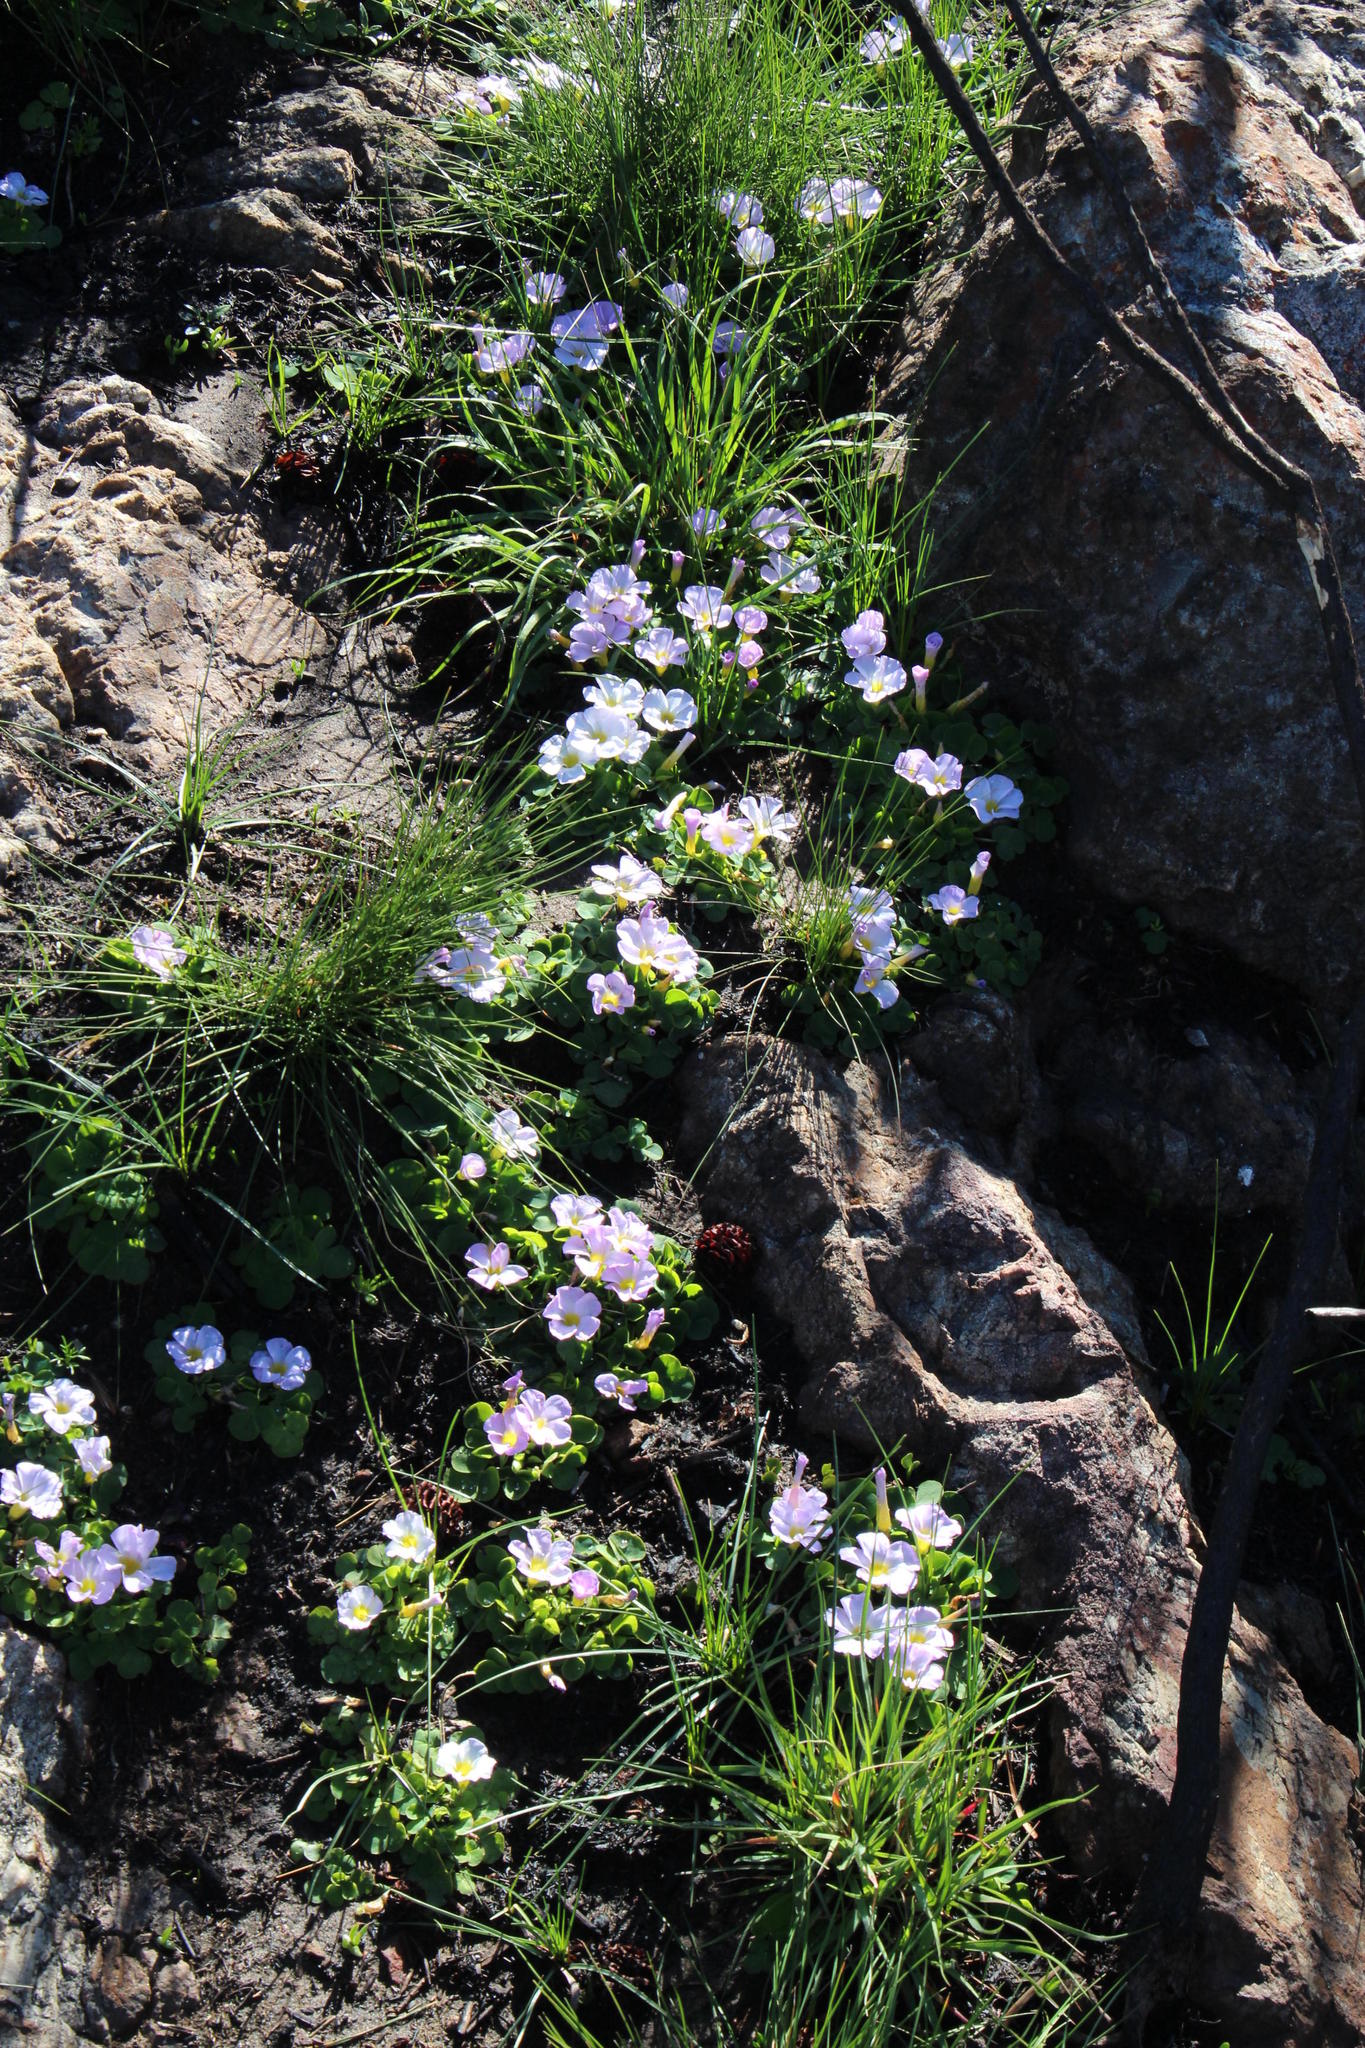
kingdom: Plantae
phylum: Tracheophyta
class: Magnoliopsida
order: Oxalidales
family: Oxalidaceae
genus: Oxalis
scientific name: Oxalis purpurea
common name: Purple woodsorrel
